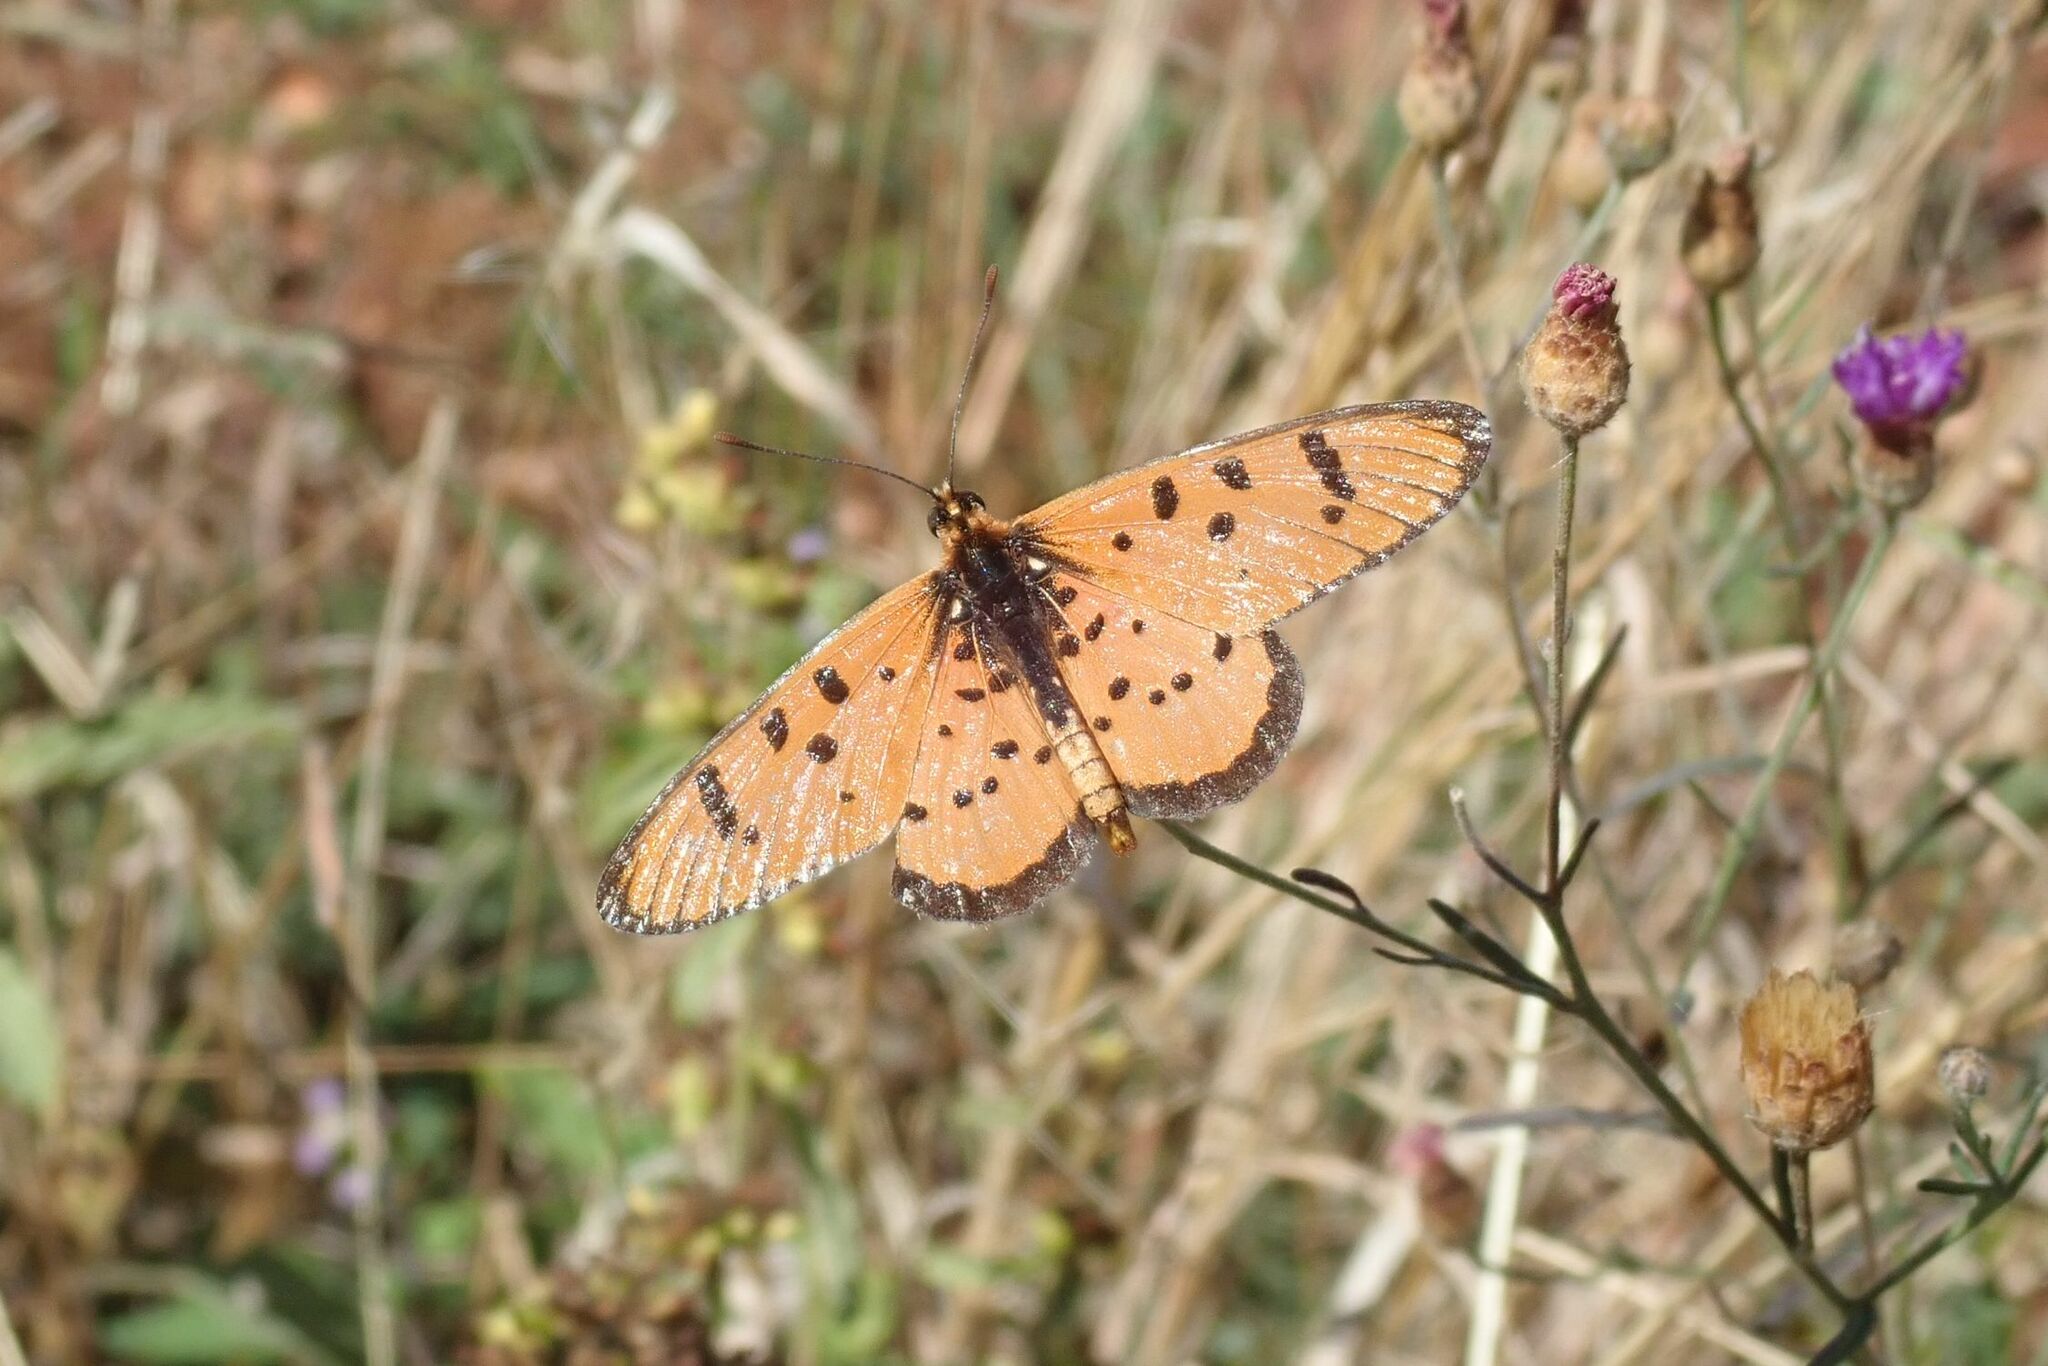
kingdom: Animalia
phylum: Arthropoda
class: Insecta
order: Lepidoptera
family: Nymphalidae
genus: Rubraea
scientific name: Rubraea
